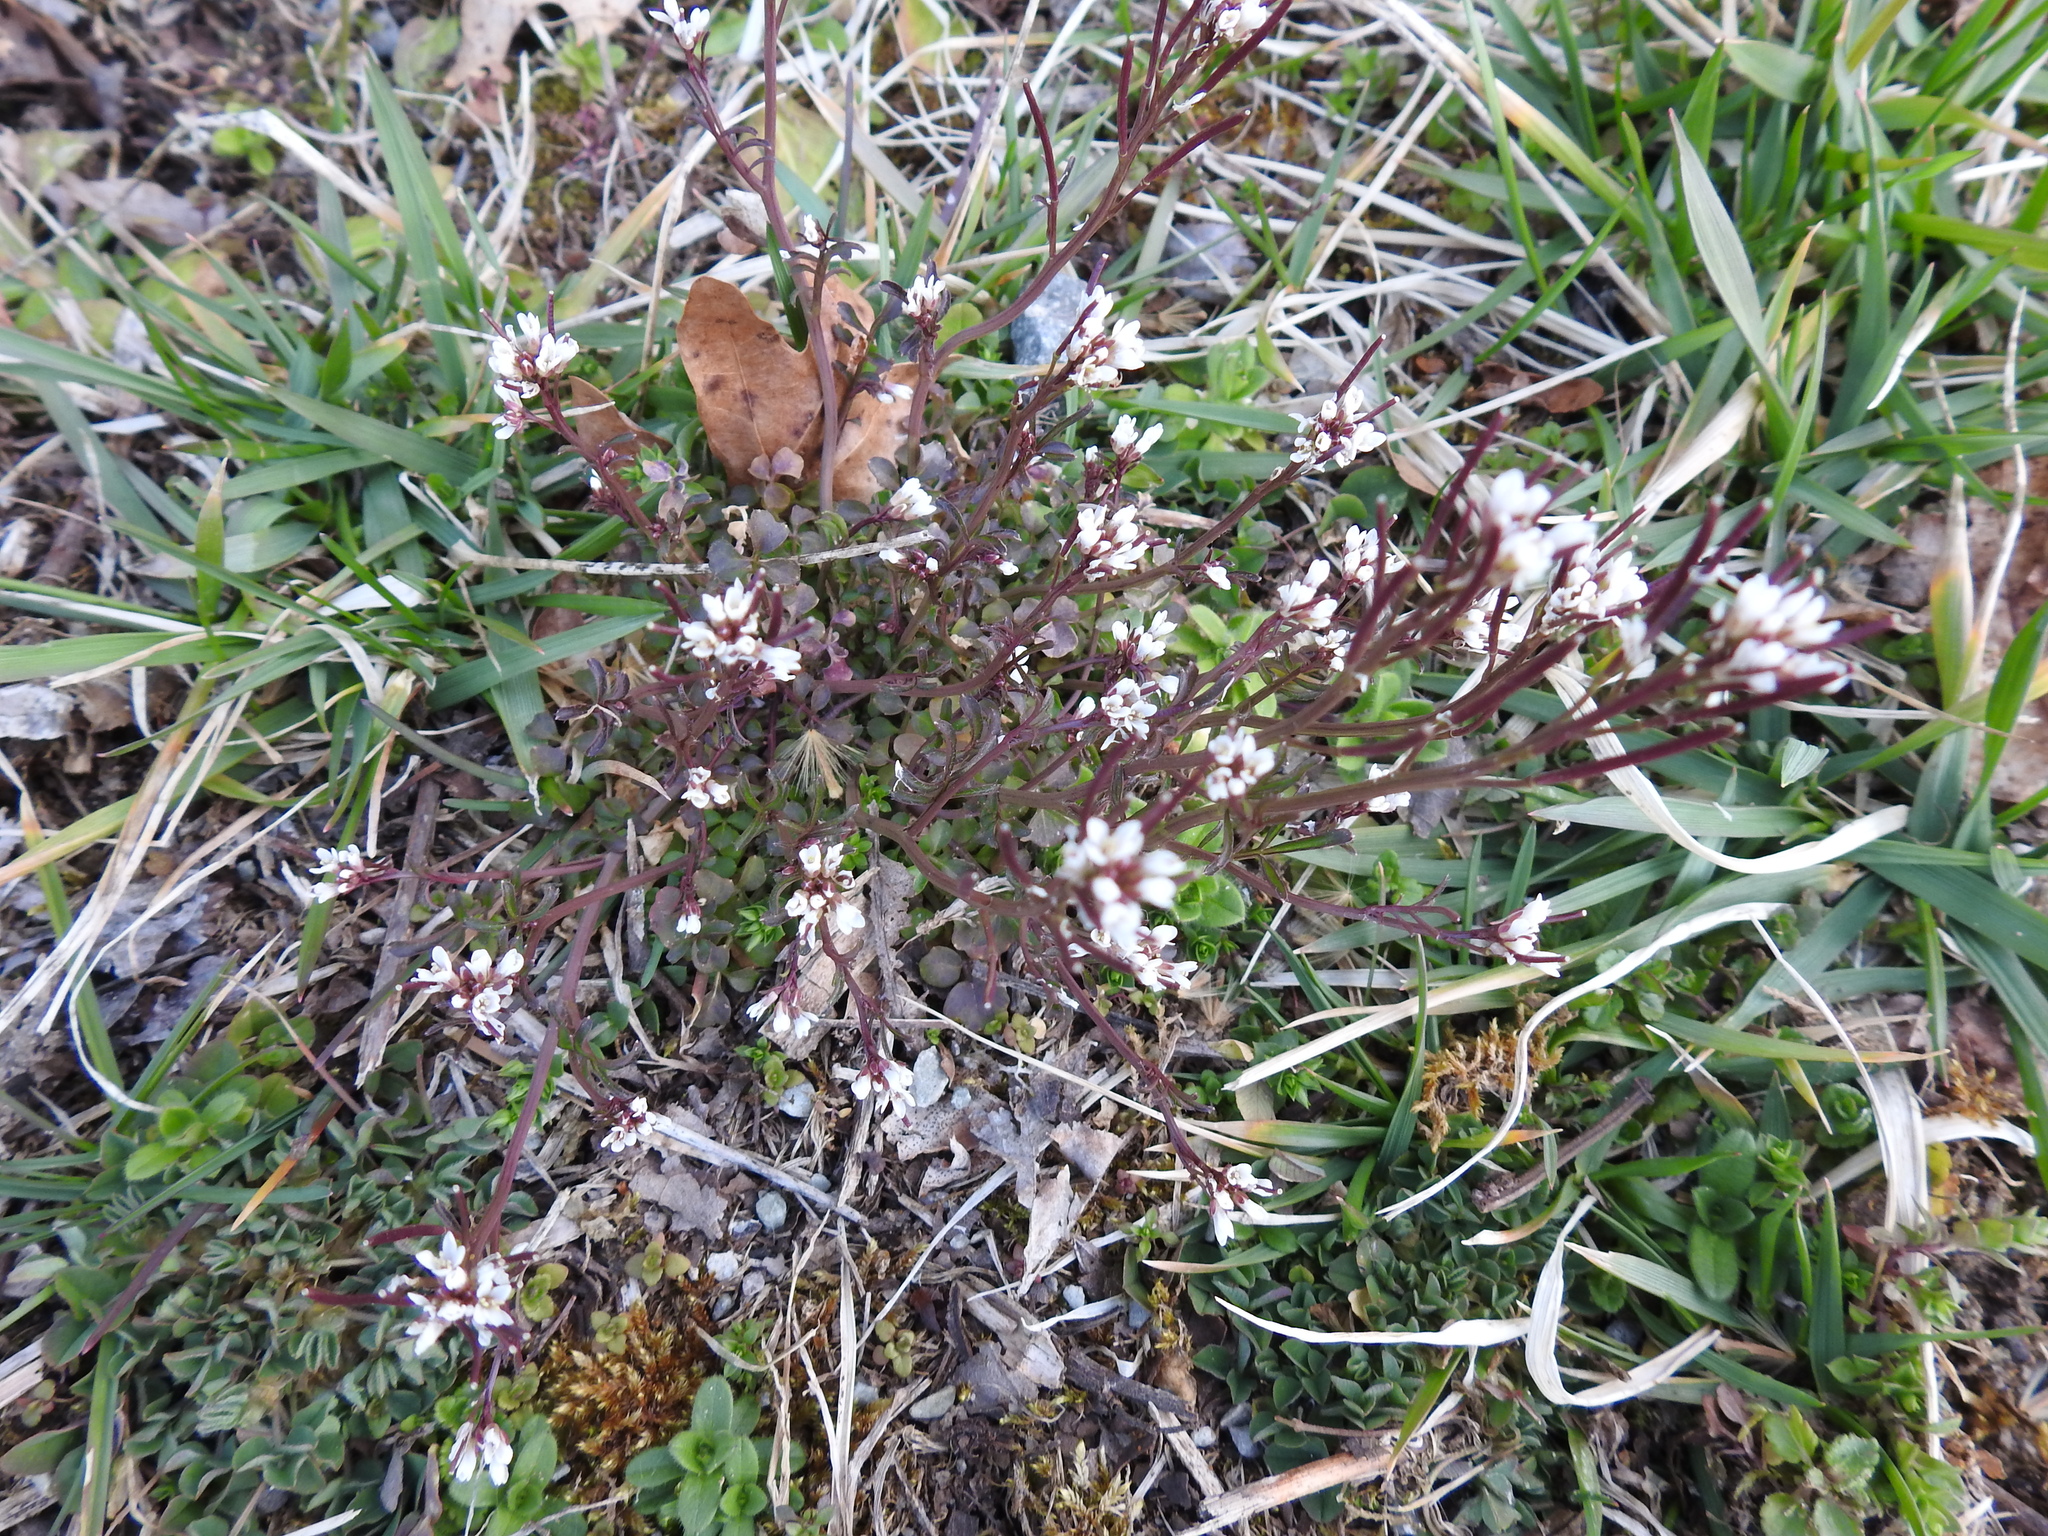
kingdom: Plantae
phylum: Tracheophyta
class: Magnoliopsida
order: Brassicales
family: Brassicaceae
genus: Cardamine
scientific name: Cardamine hirsuta
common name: Hairy bittercress
